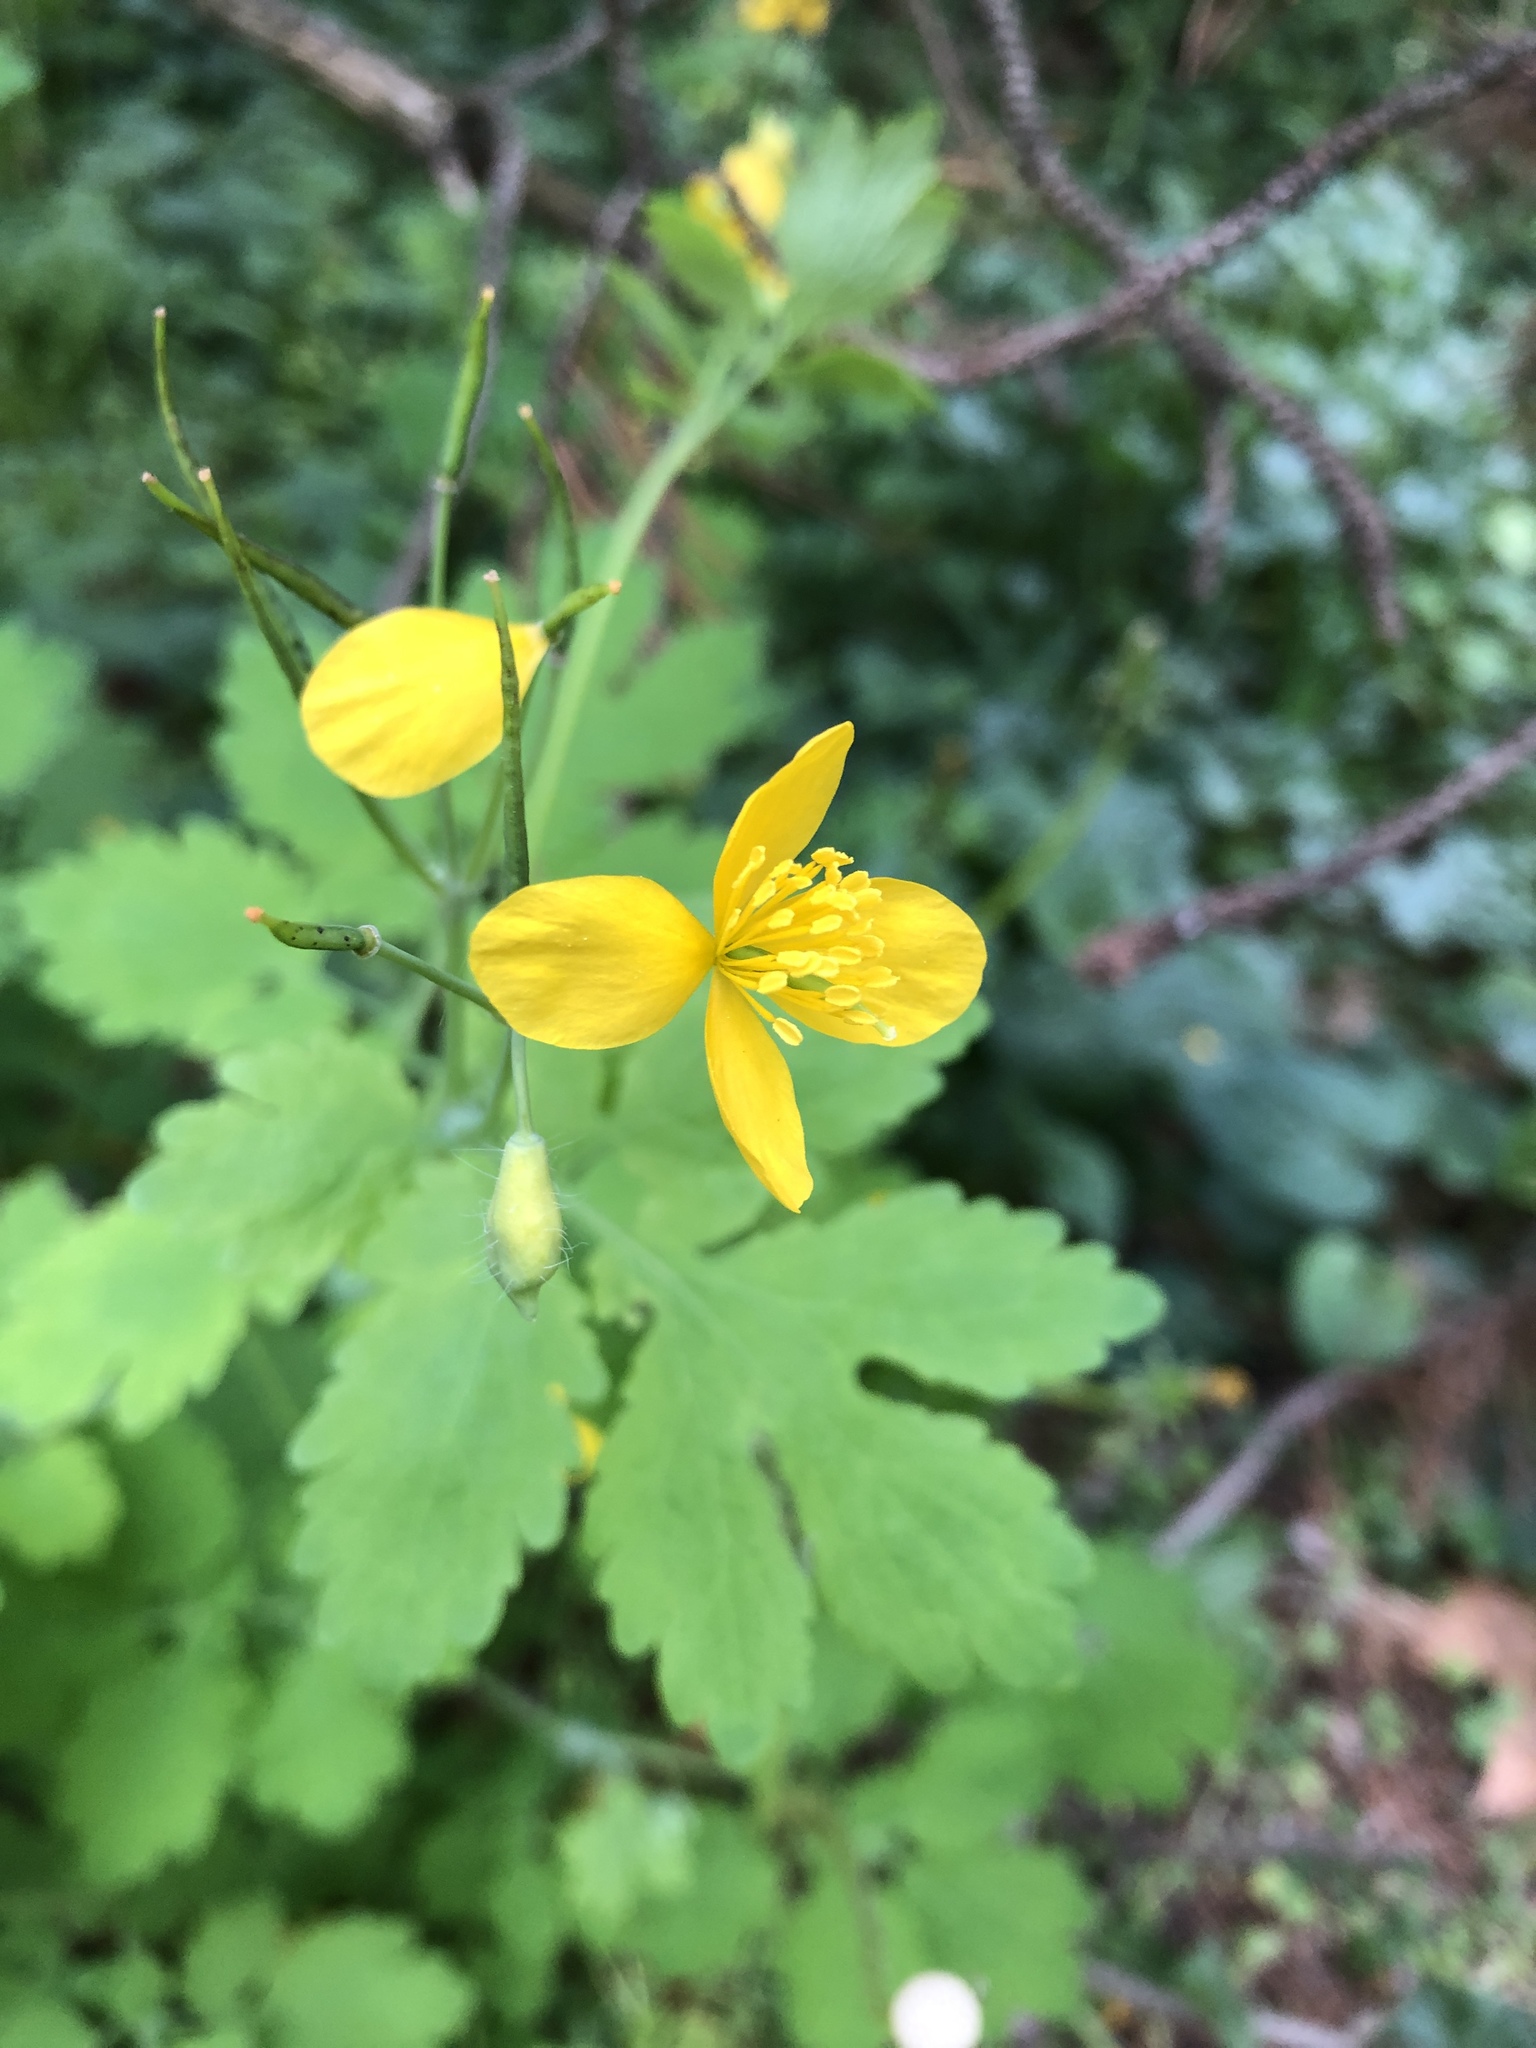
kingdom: Plantae
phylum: Tracheophyta
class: Magnoliopsida
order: Ranunculales
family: Papaveraceae
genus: Chelidonium
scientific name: Chelidonium majus
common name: Greater celandine
